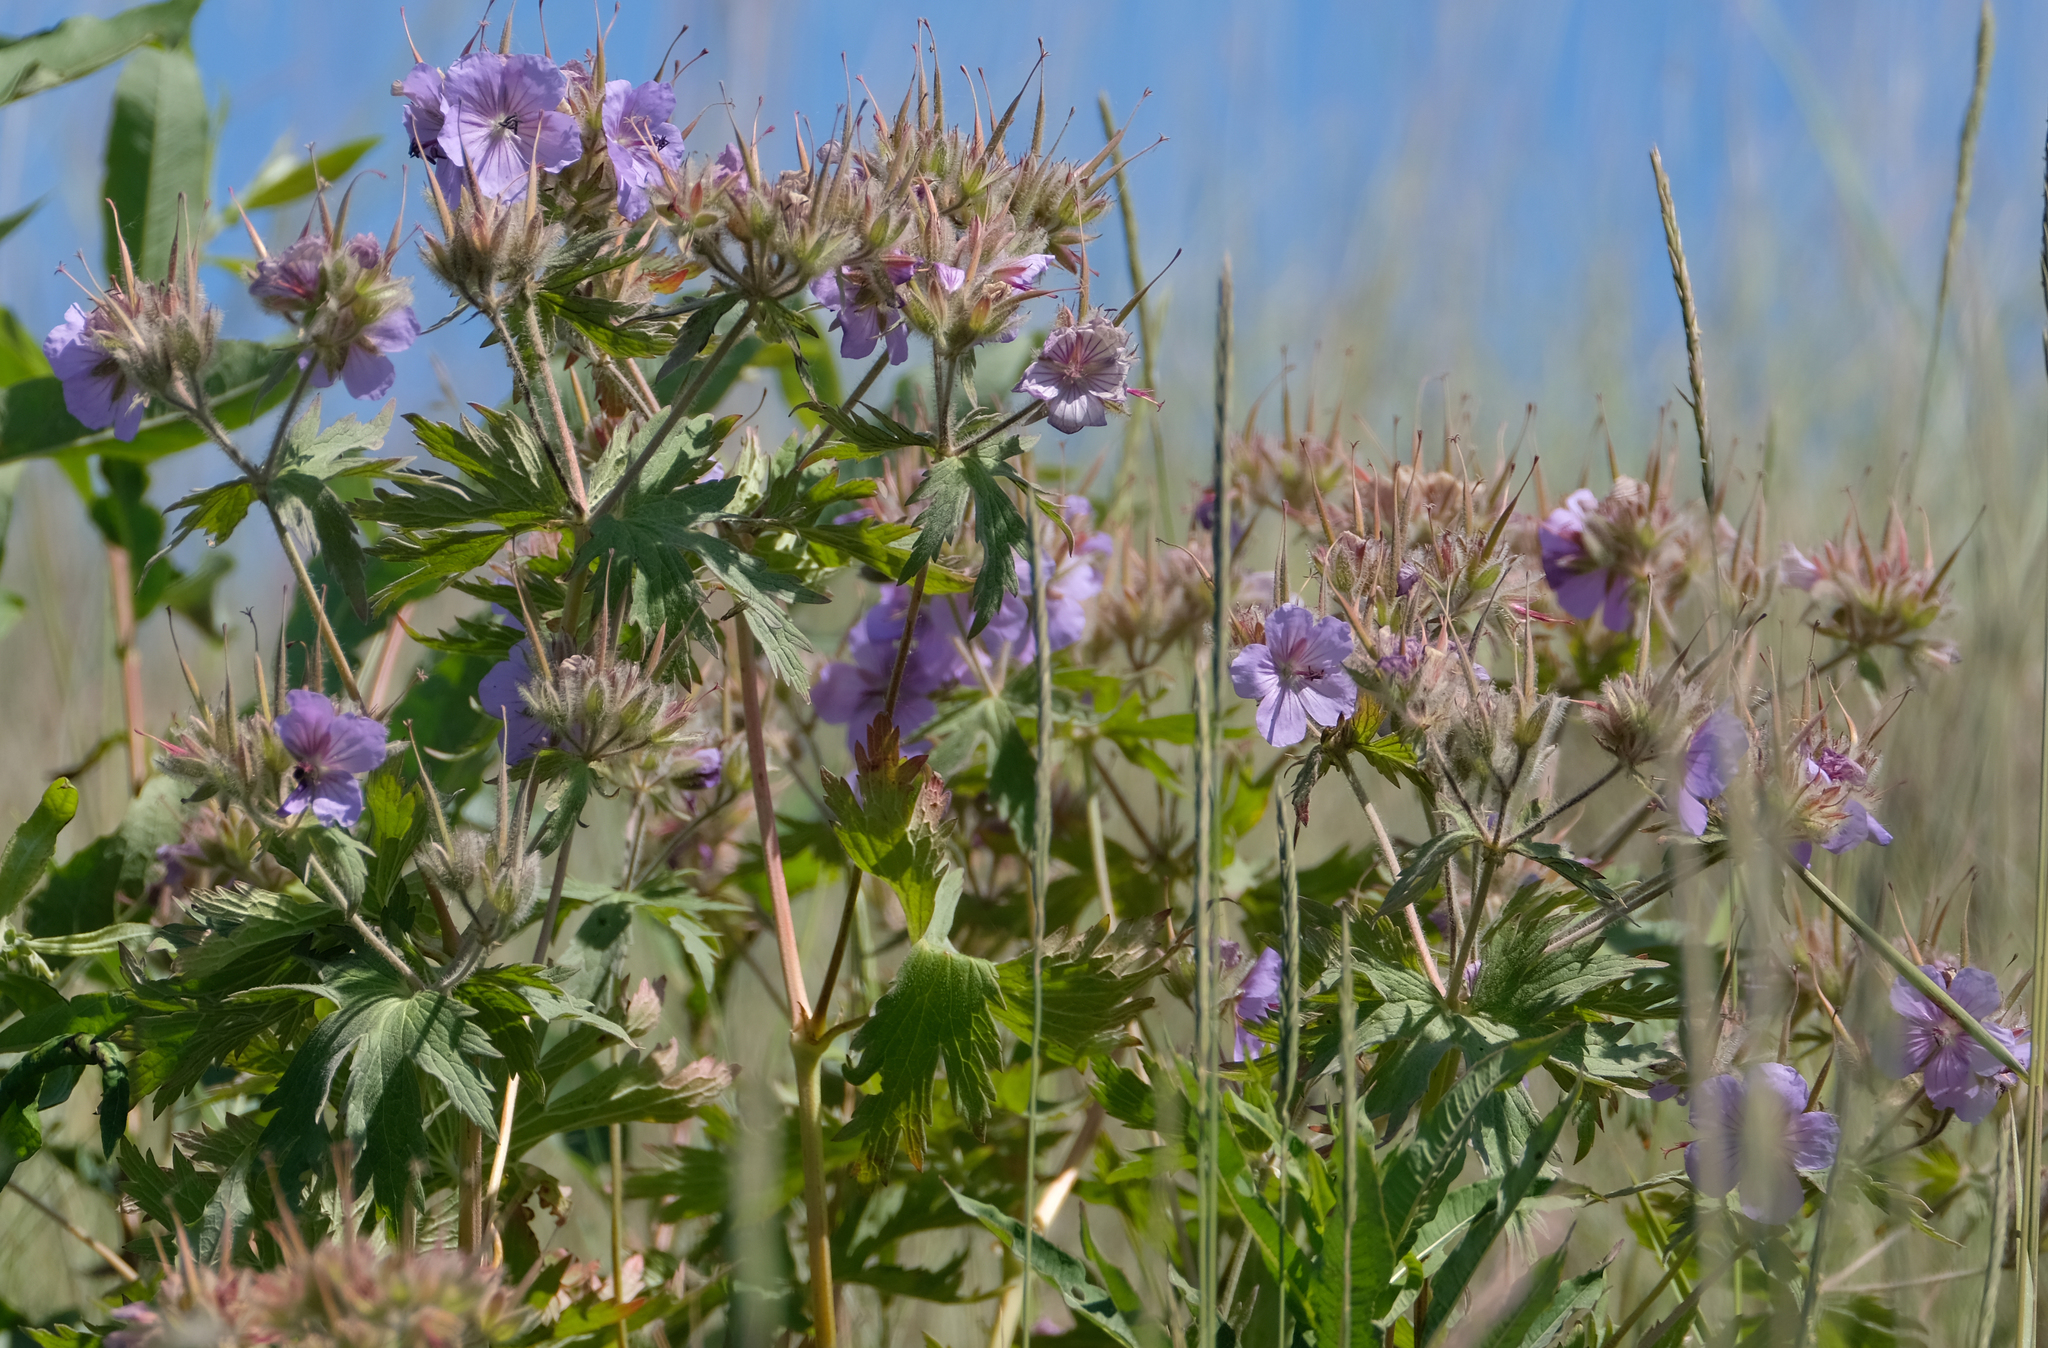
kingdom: Plantae
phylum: Tracheophyta
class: Magnoliopsida
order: Geraniales
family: Geraniaceae
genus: Geranium
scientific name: Geranium erianthum
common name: Northern crane's-bill
